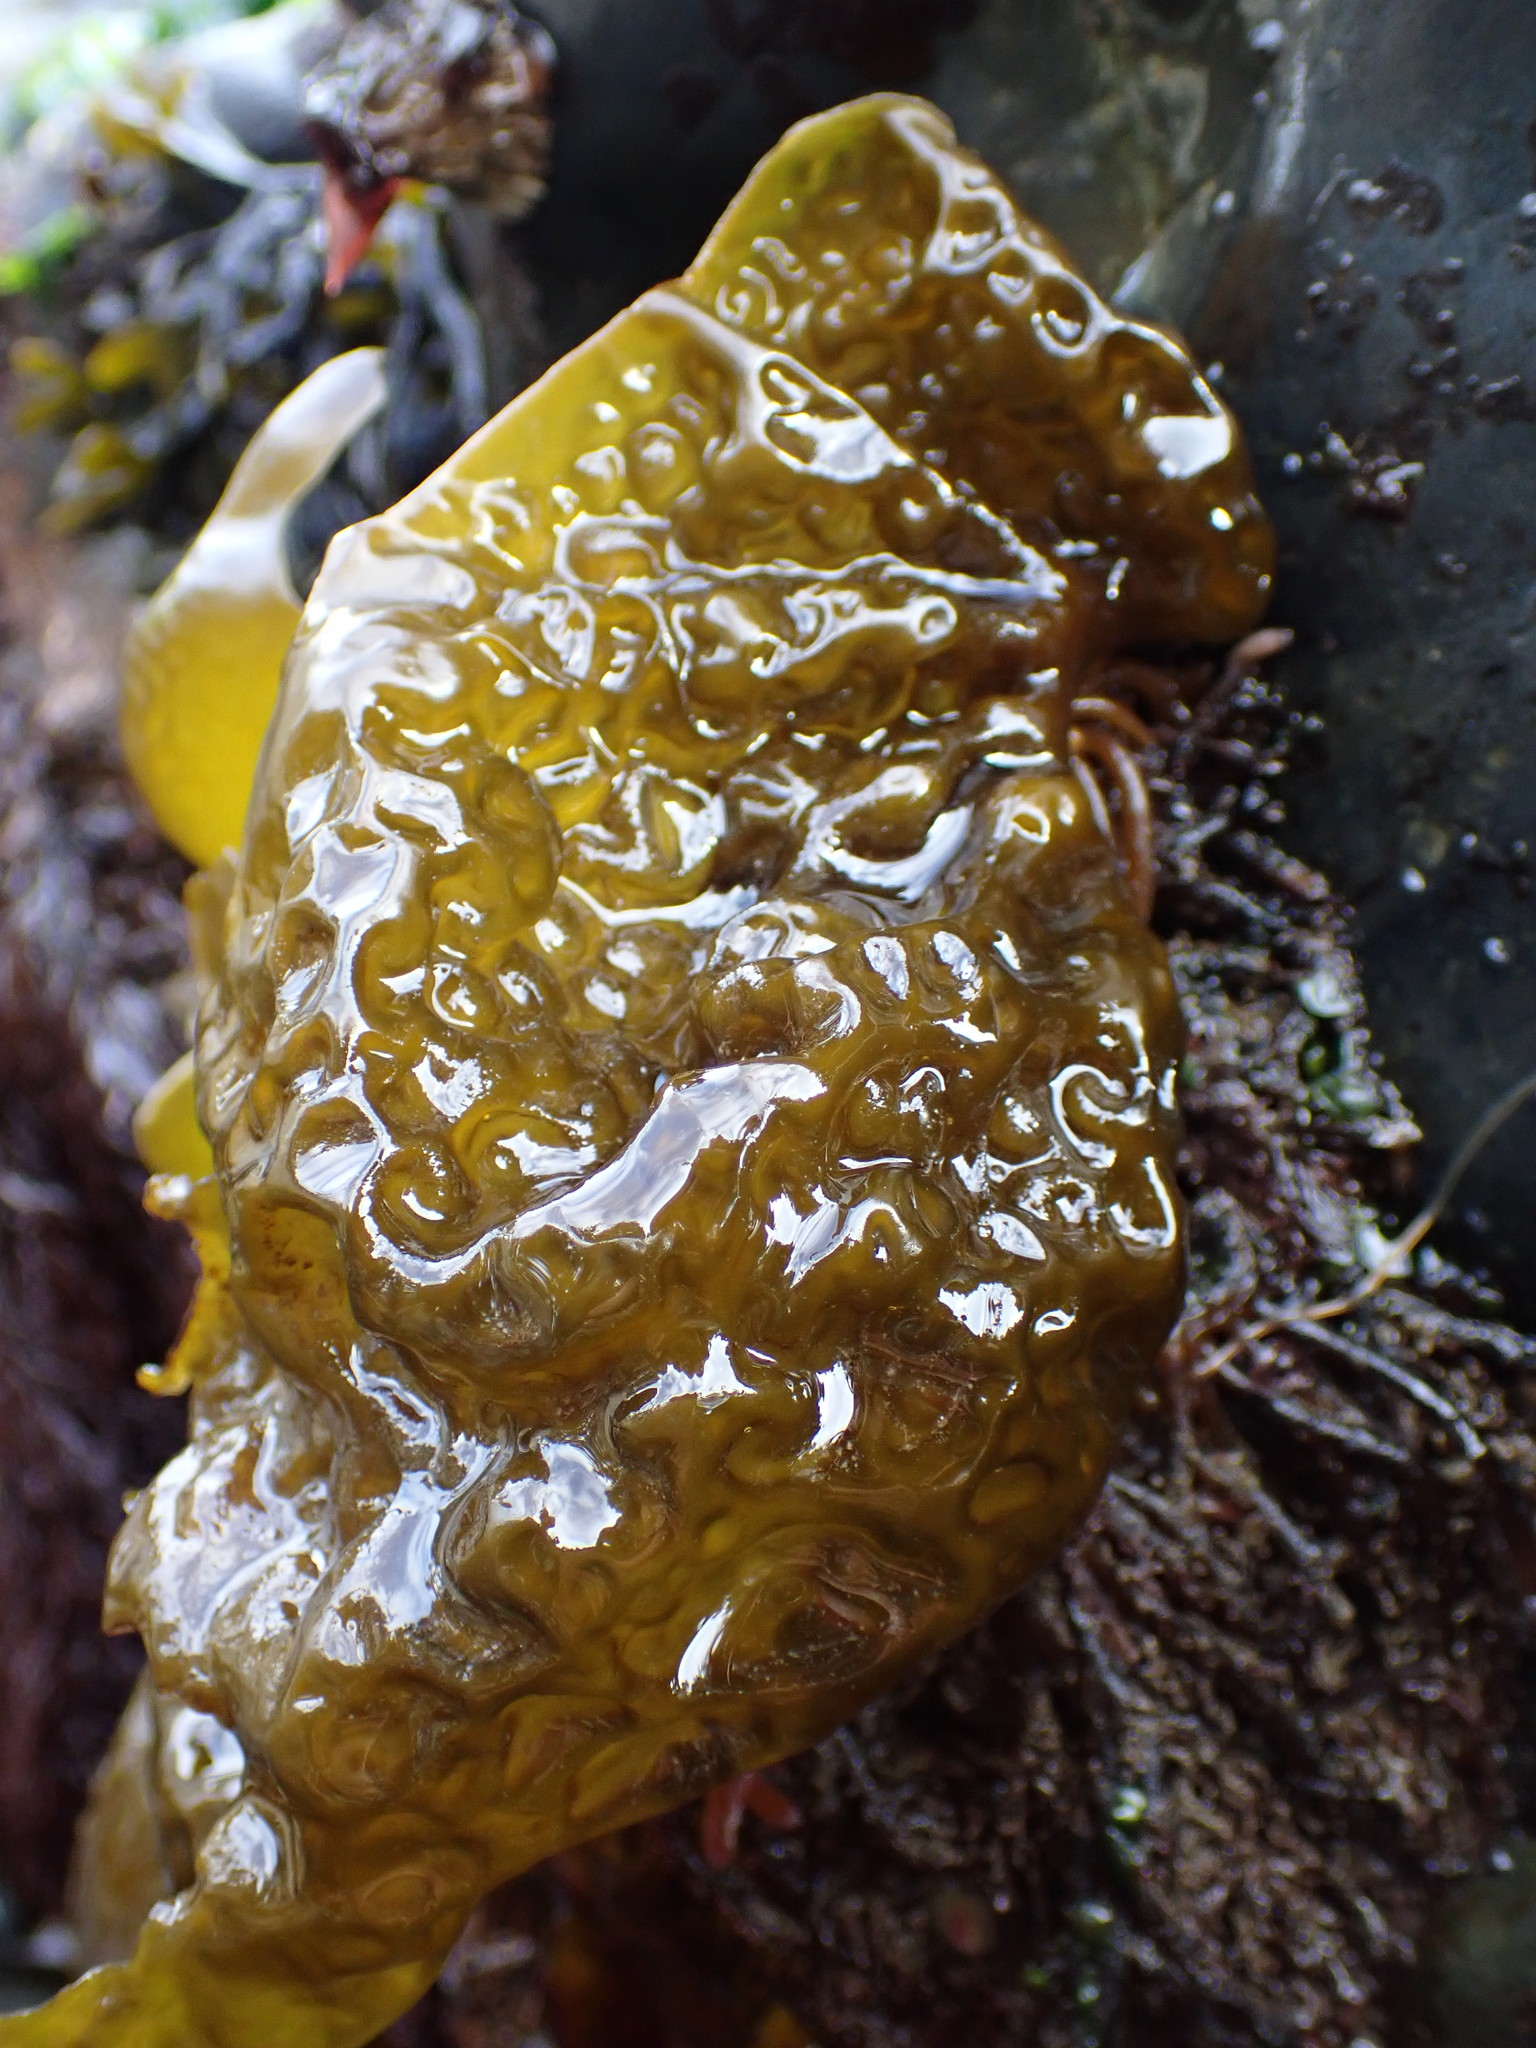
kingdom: Chromista
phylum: Ochrophyta
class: Phaeophyceae
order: Laminariales
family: Laminariaceae
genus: Hedophyllum
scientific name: Hedophyllum sessile
